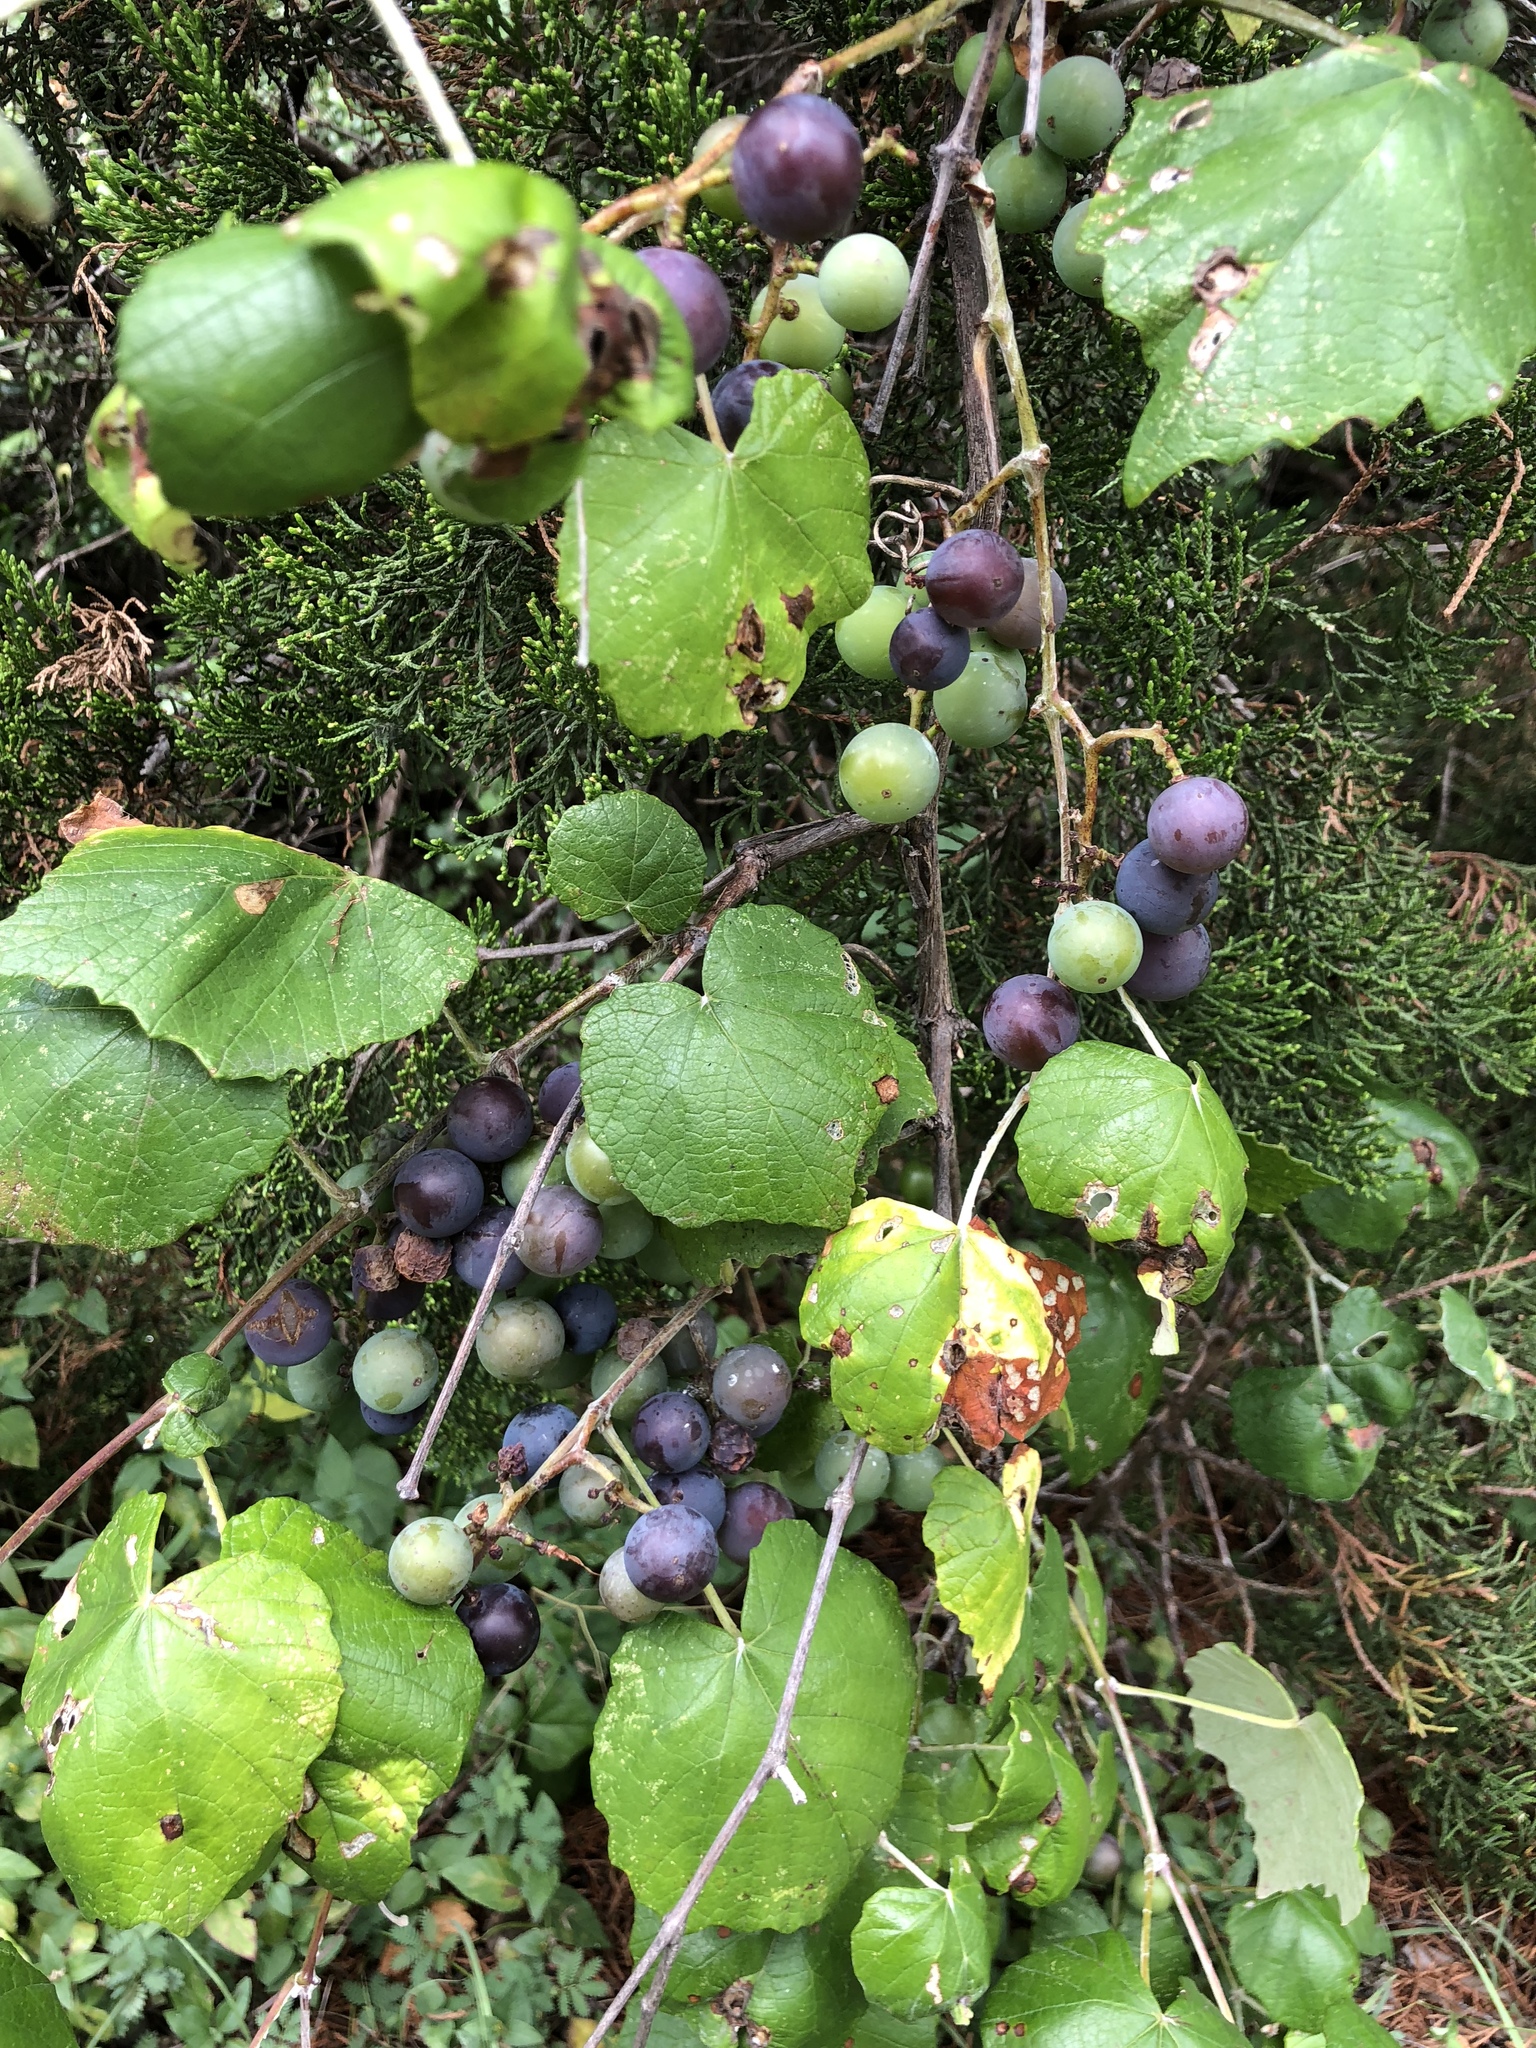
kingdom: Plantae
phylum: Tracheophyta
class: Magnoliopsida
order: Vitales
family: Vitaceae
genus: Vitis
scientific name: Vitis mustangensis
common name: Mustang grape
